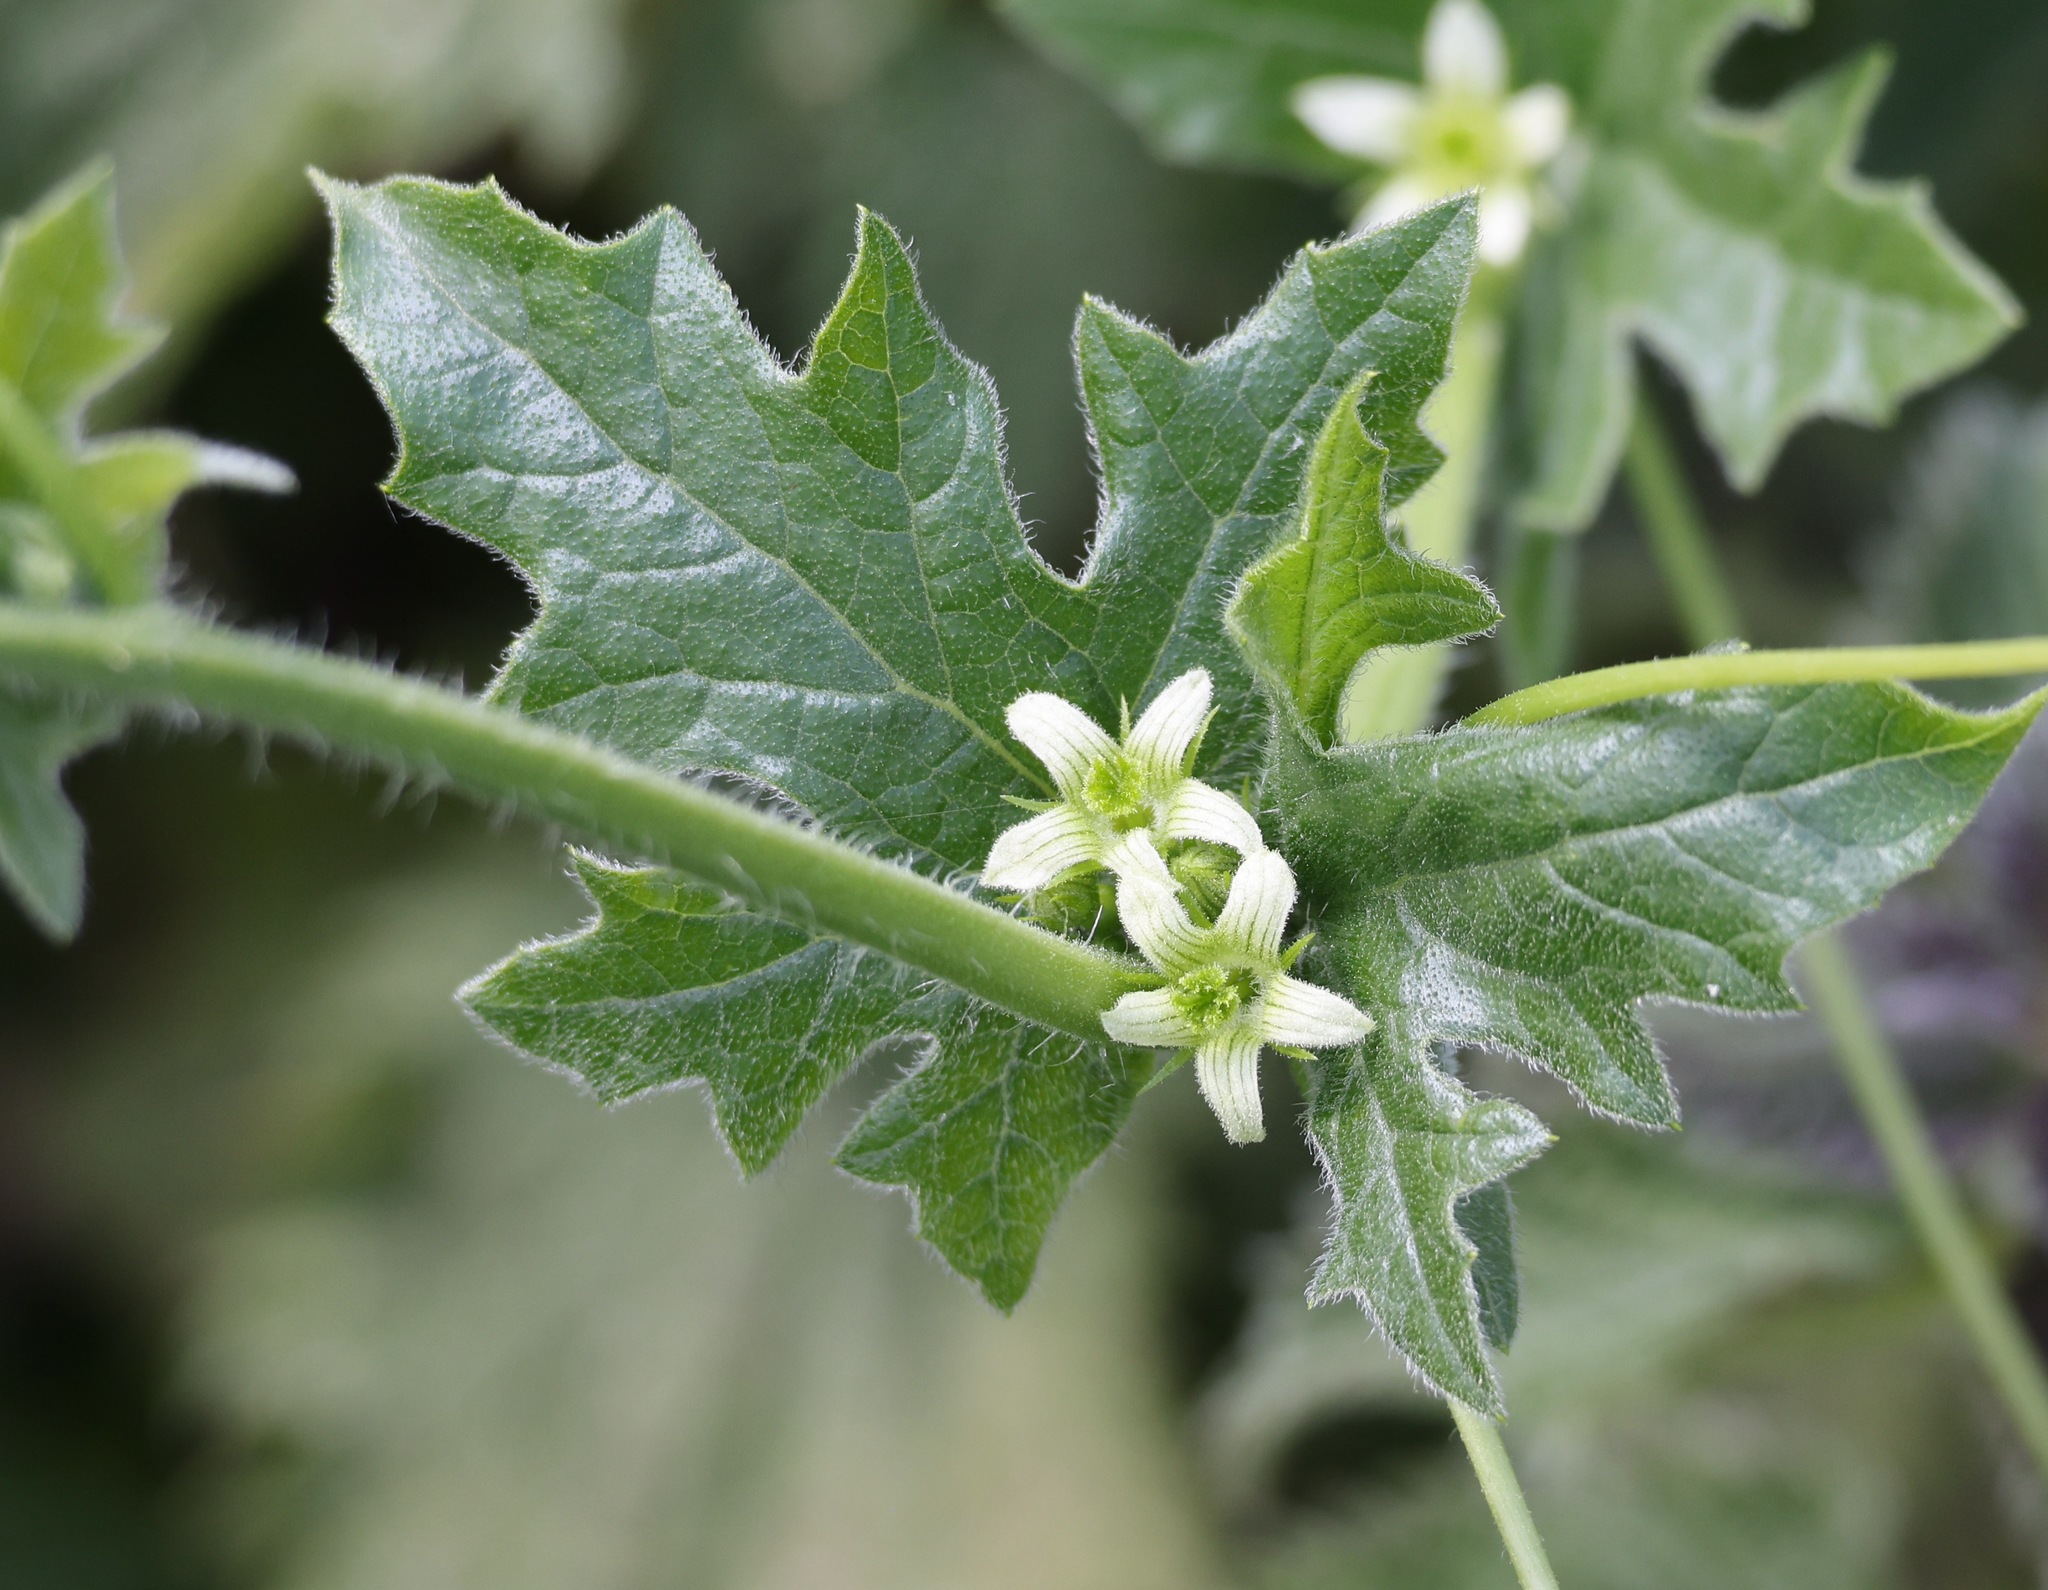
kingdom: Plantae
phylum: Tracheophyta
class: Magnoliopsida
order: Cucurbitales
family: Cucurbitaceae
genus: Bryonia
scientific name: Bryonia cretica
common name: Cretan bryony
